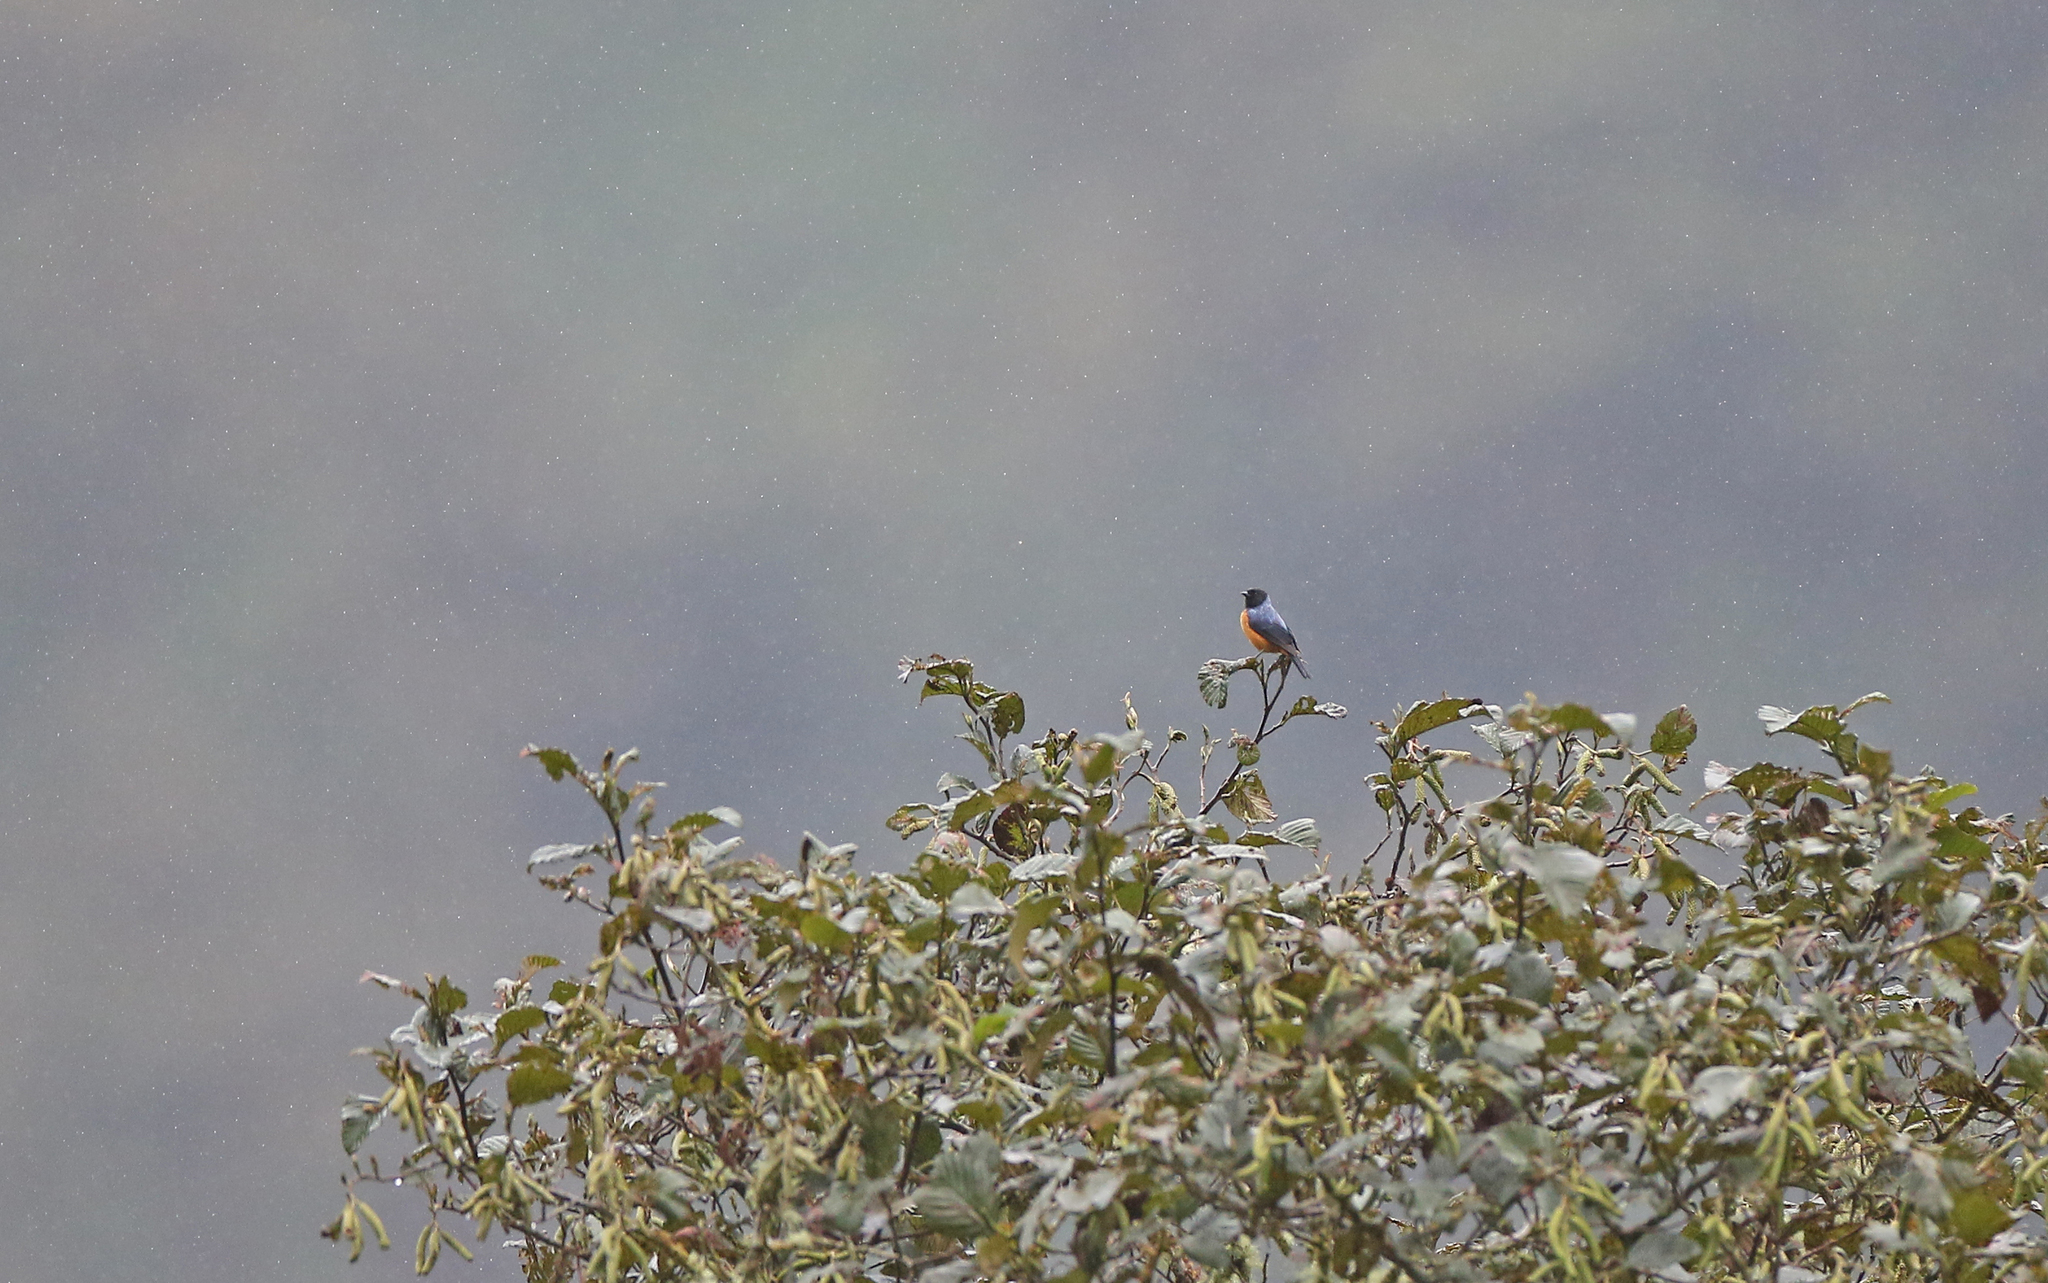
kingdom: Animalia
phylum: Chordata
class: Aves
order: Passeriformes
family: Thraupidae
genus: Conirostrum
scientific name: Conirostrum sitticolor
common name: Blue-backed conebill
